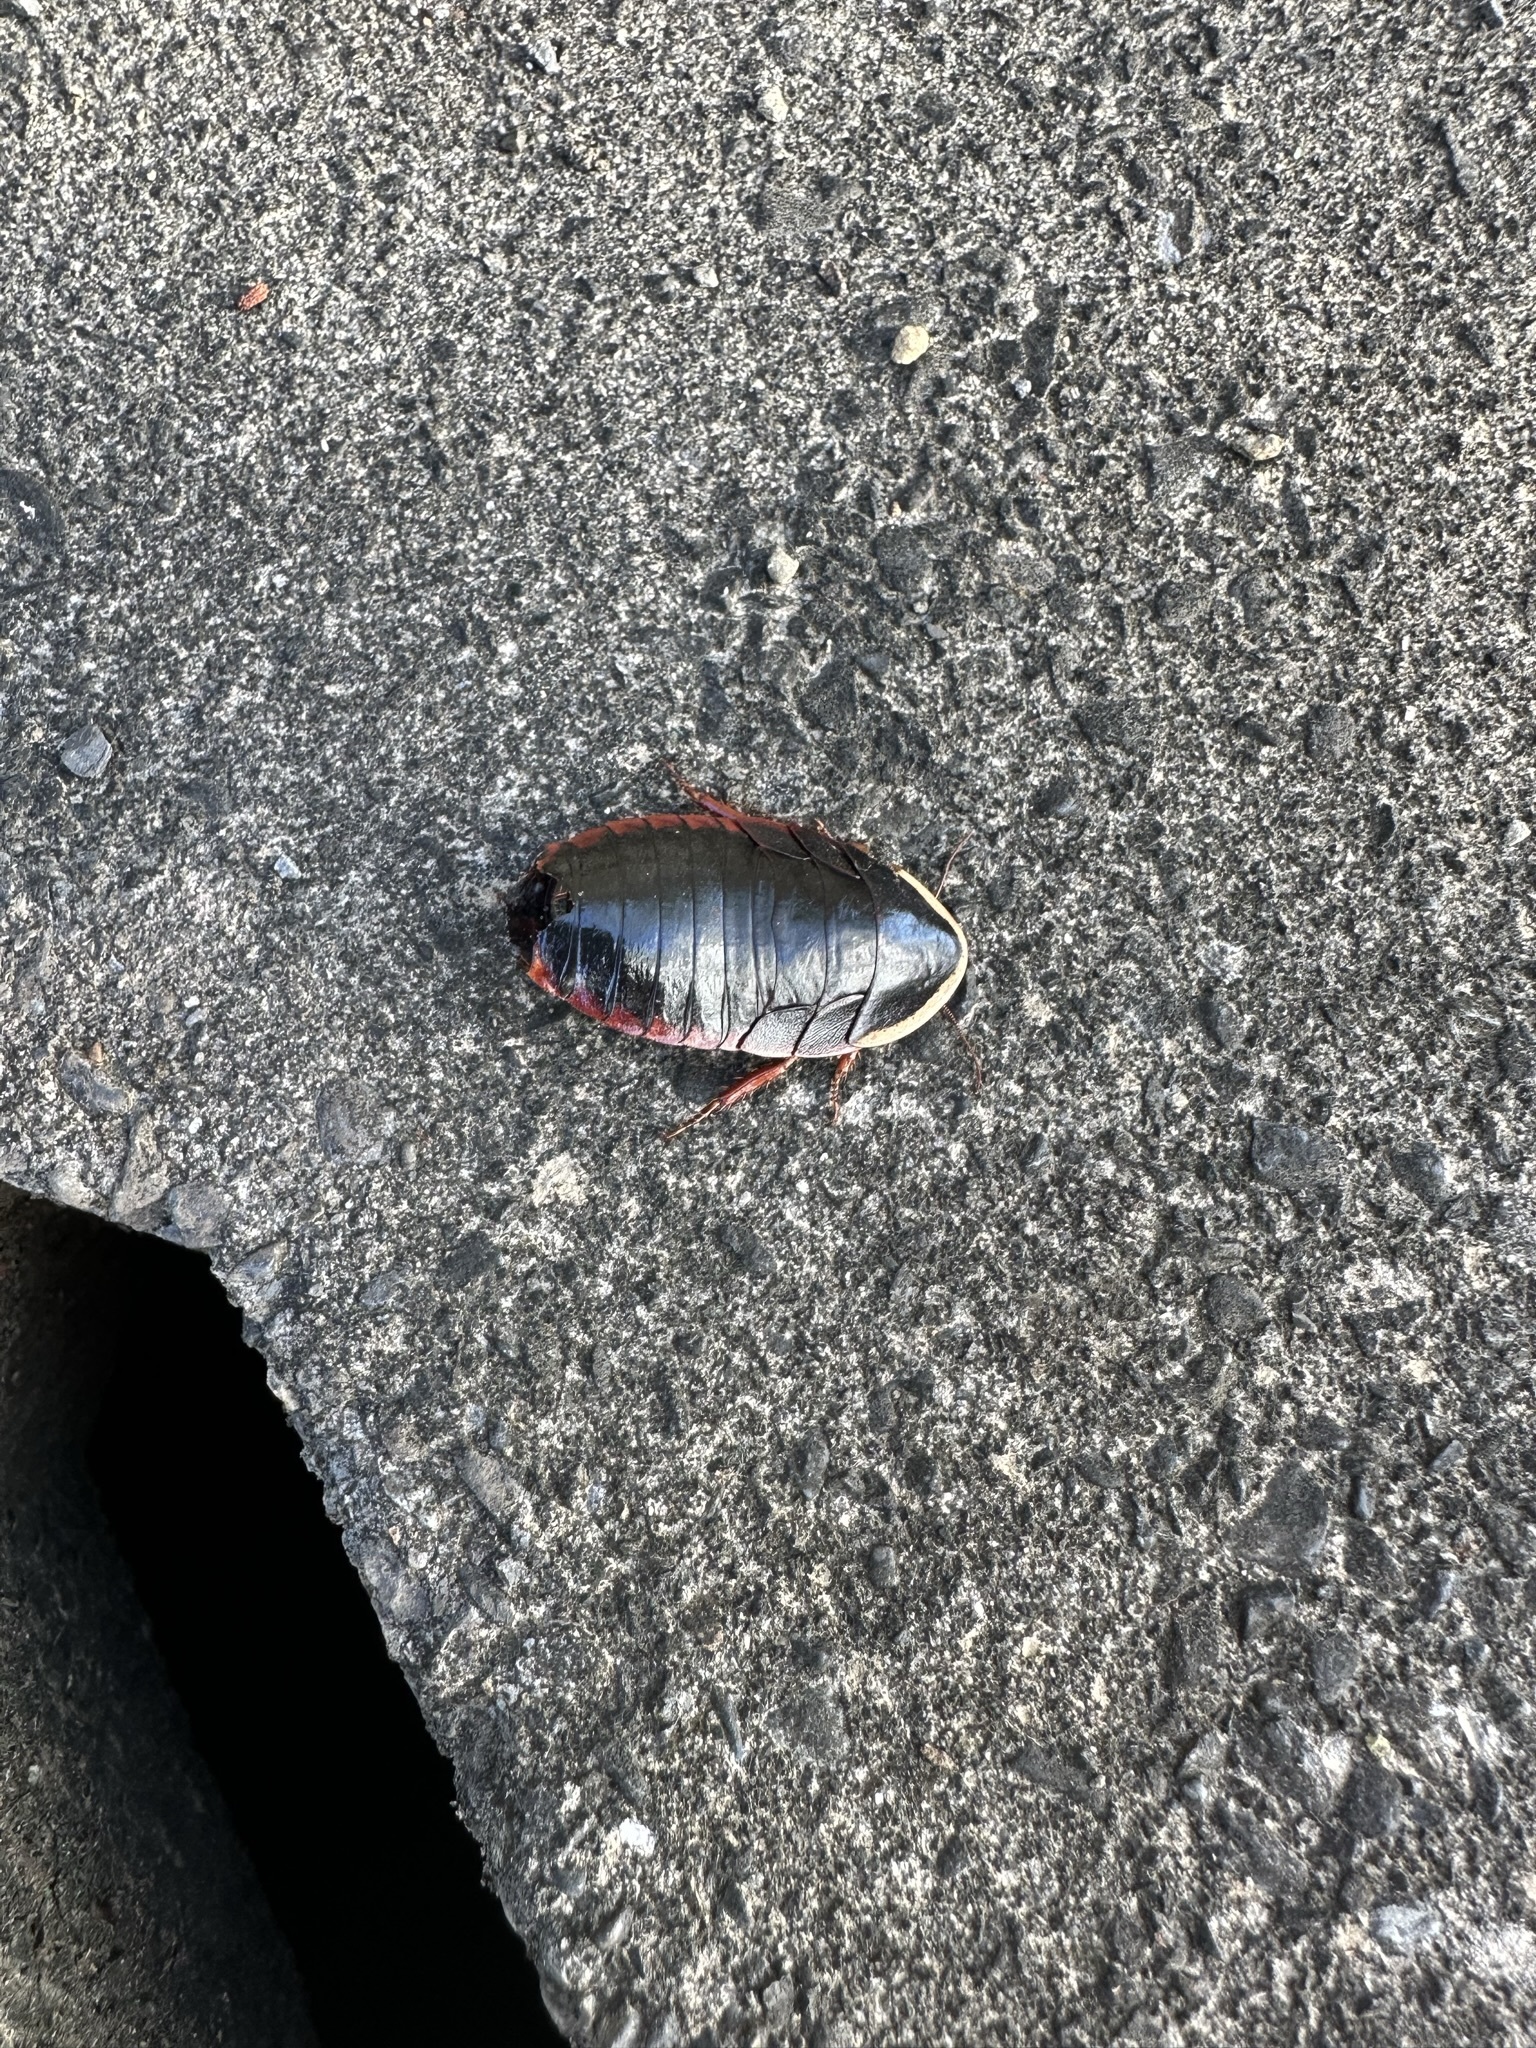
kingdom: Animalia
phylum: Arthropoda
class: Insecta
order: Blattodea
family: Blaberidae
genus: Opisthoplatia
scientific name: Opisthoplatia orientalis
